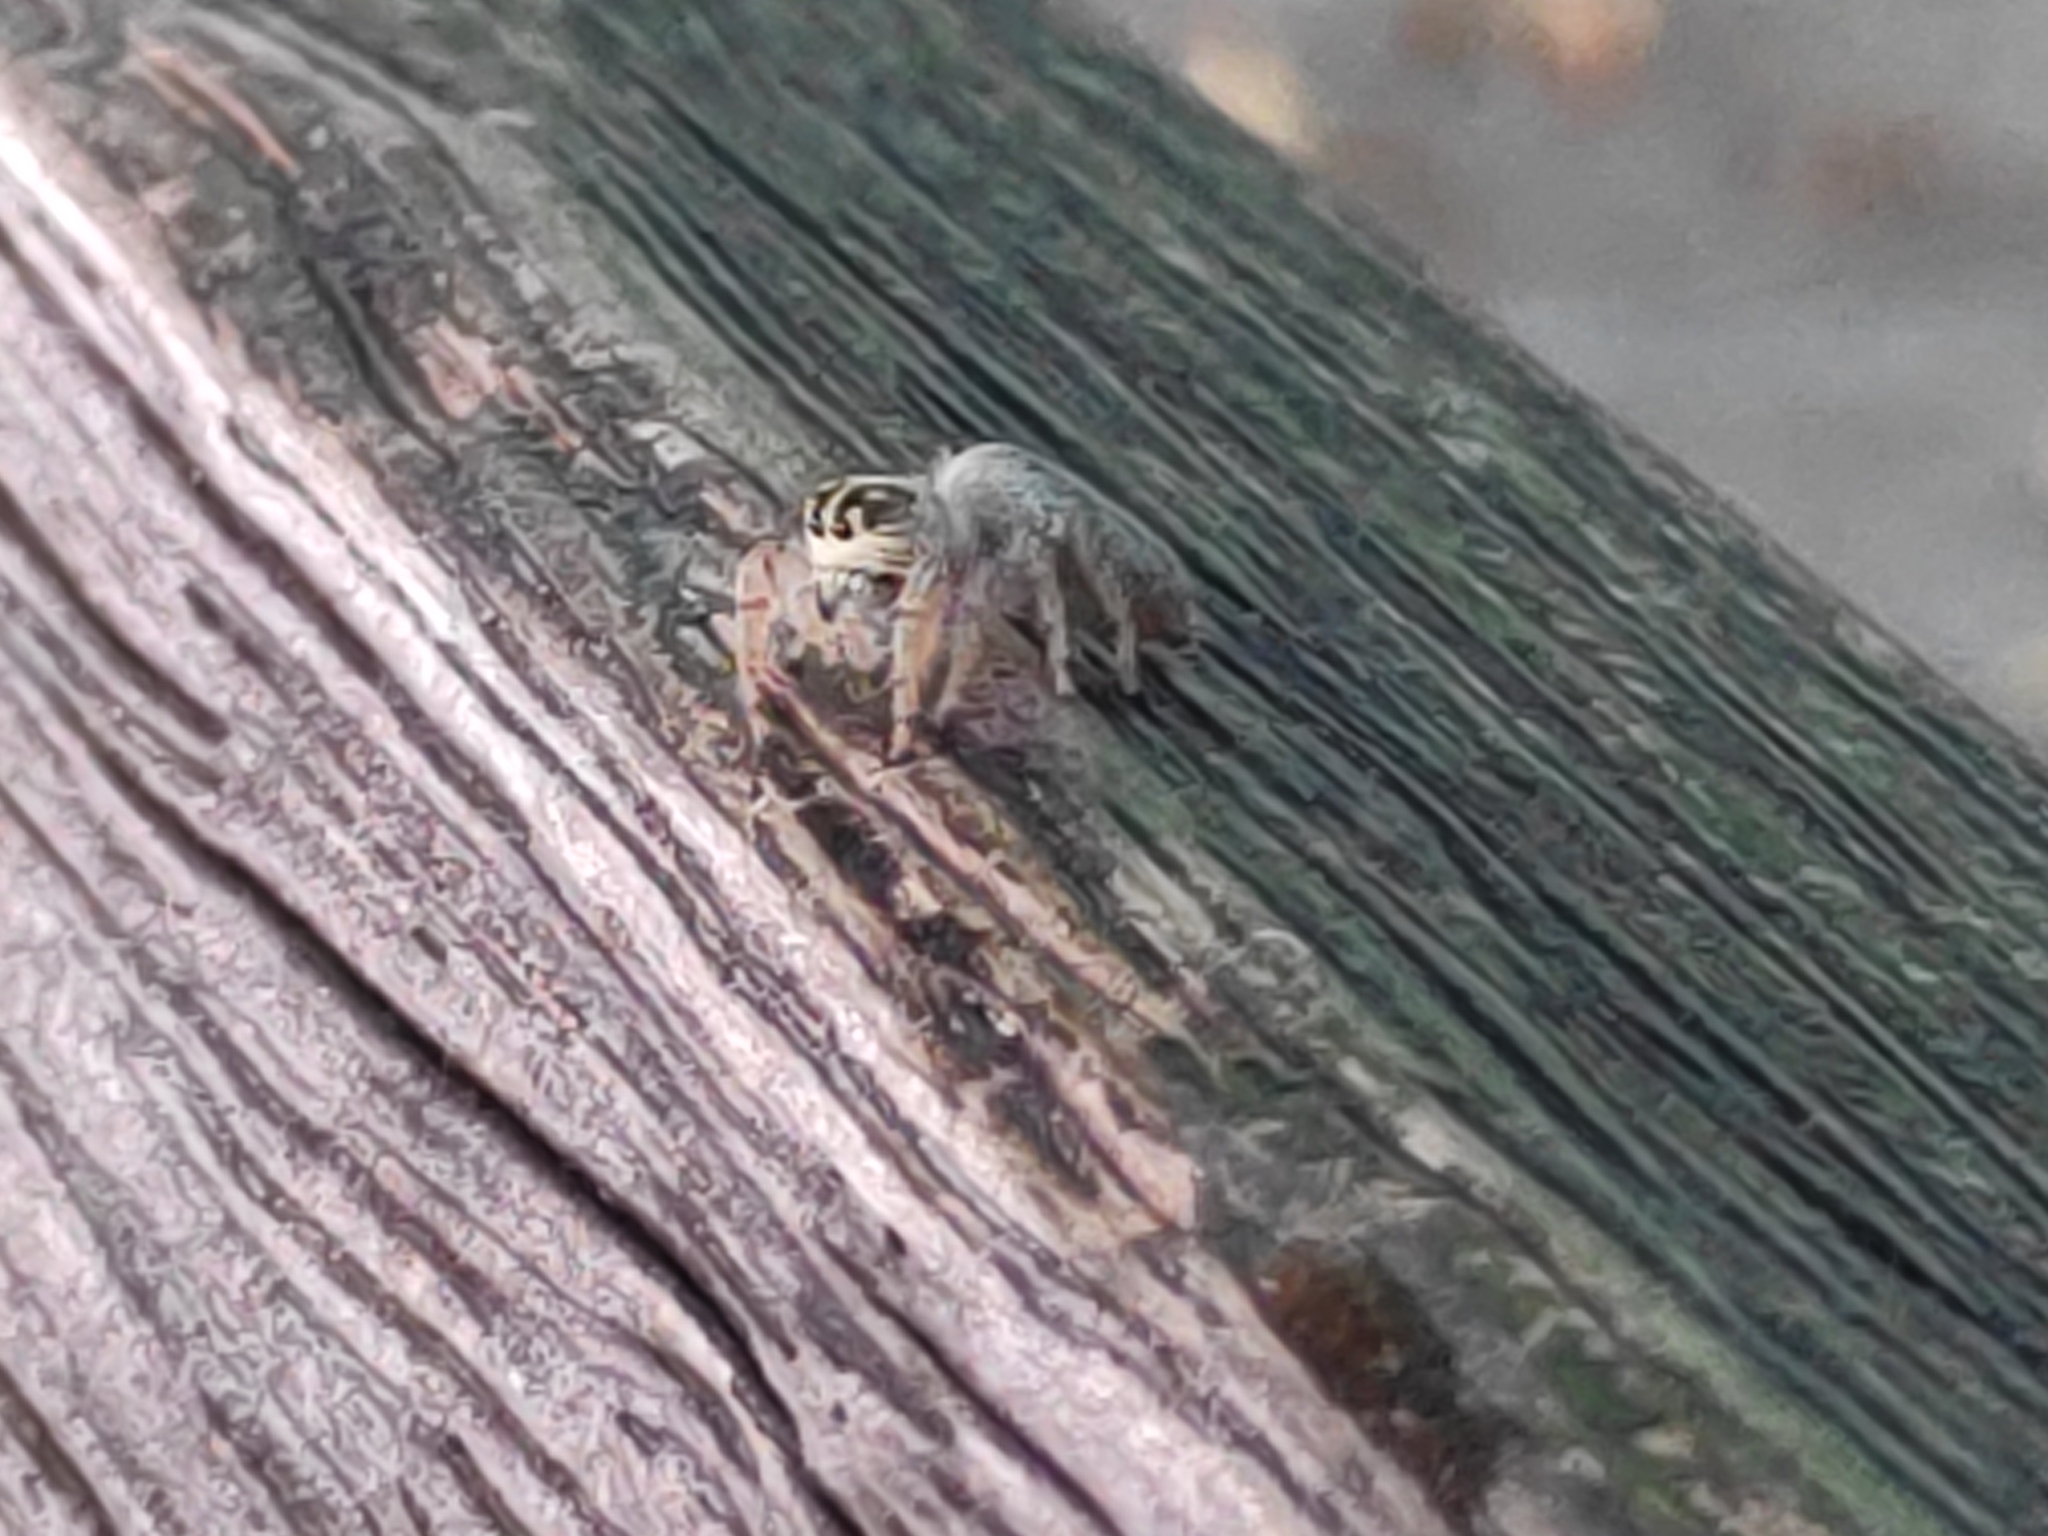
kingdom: Animalia
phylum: Arthropoda
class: Arachnida
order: Araneae
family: Salticidae
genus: Macaroeris
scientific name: Macaroeris nidicolens
